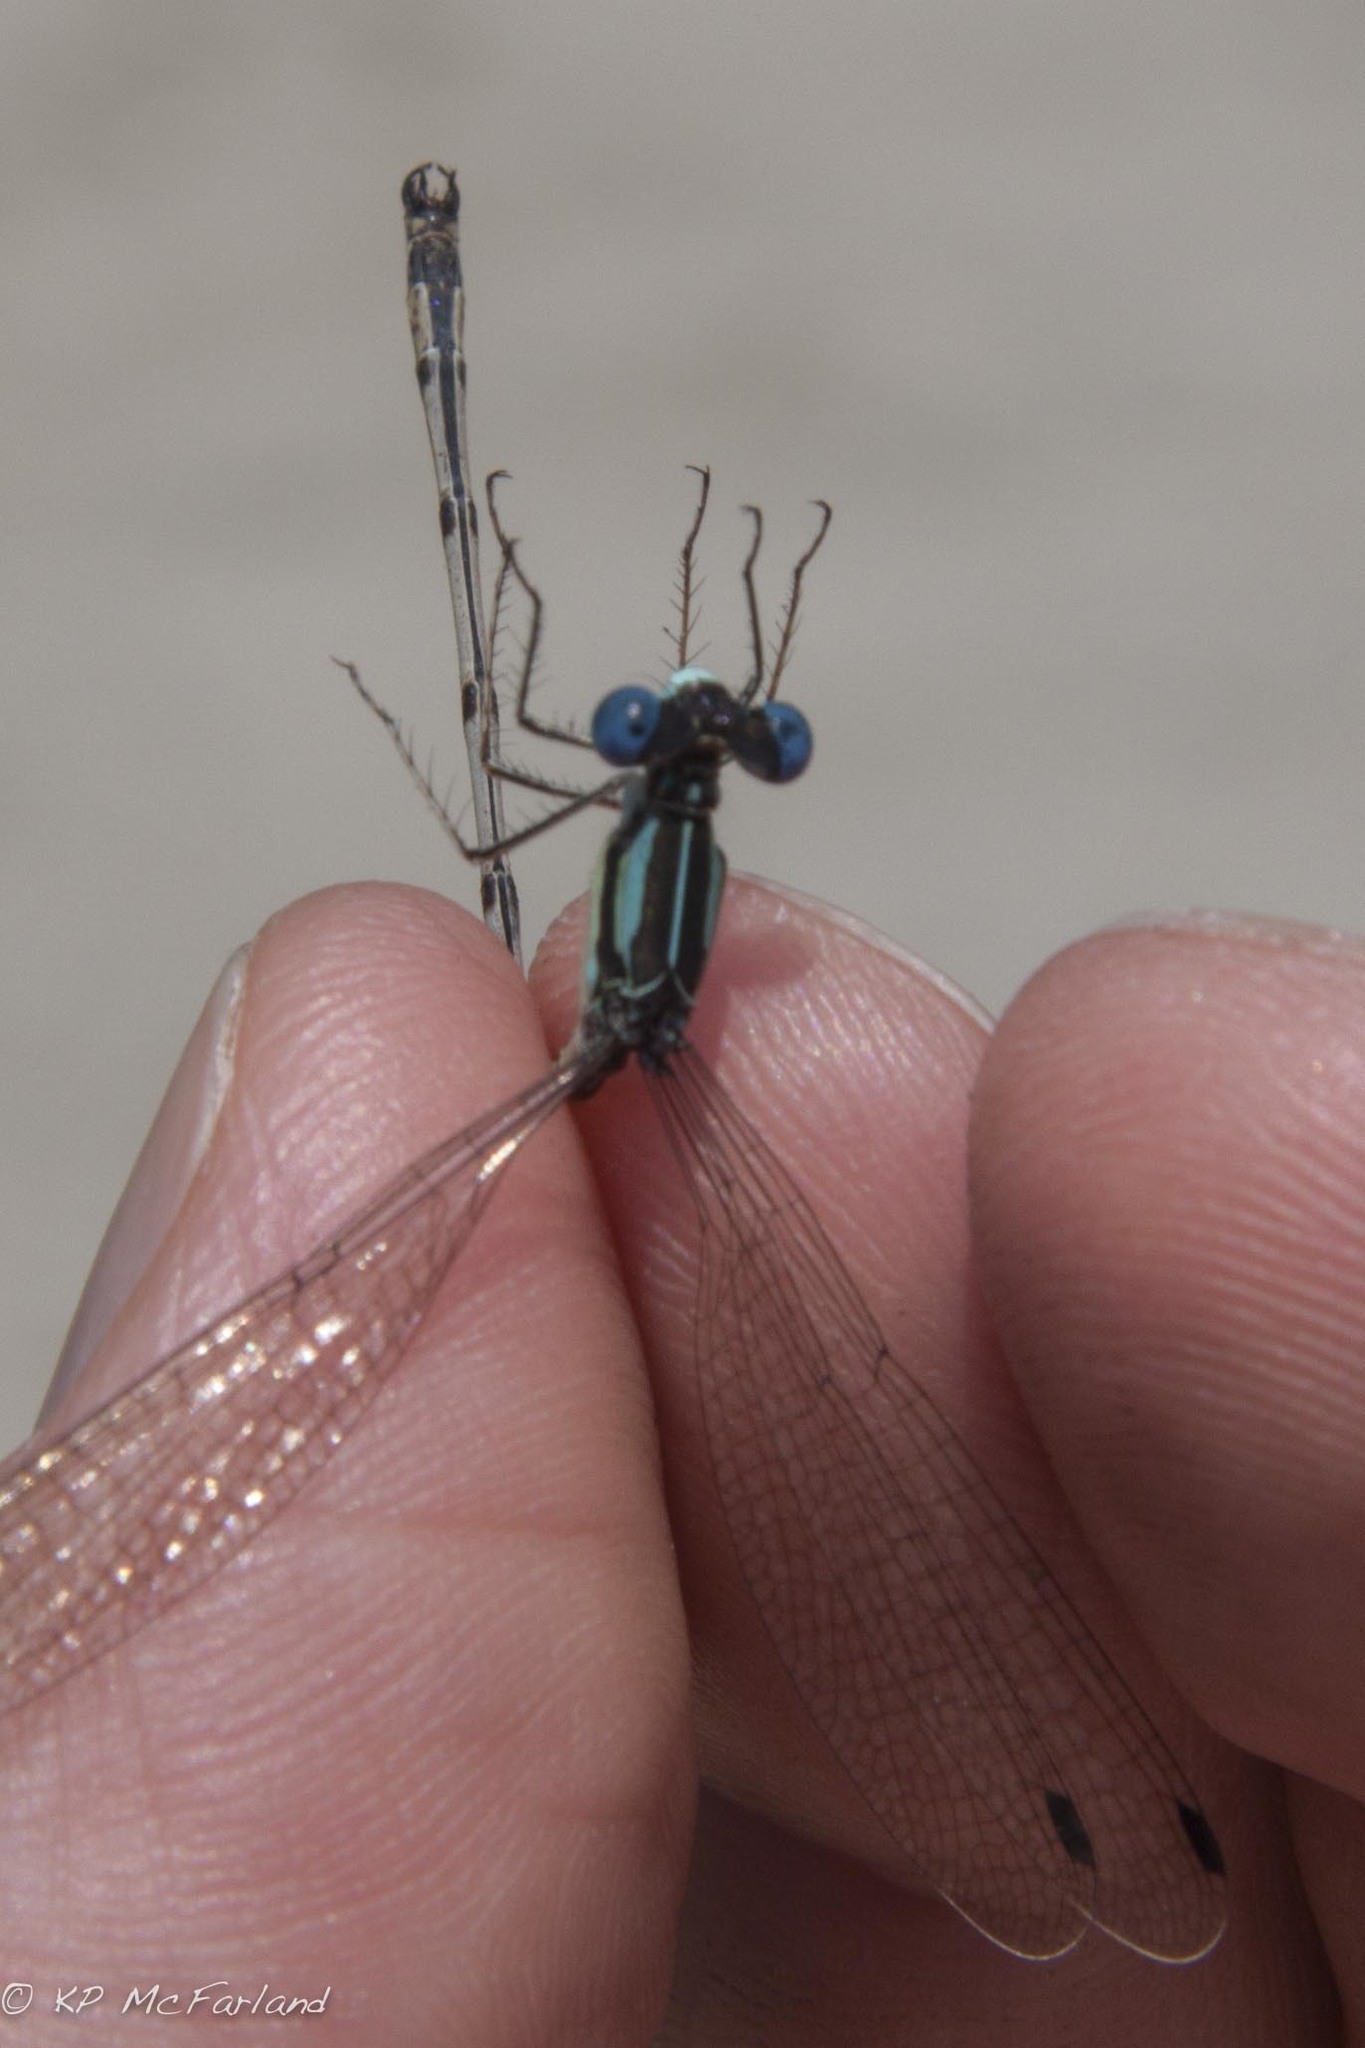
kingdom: Animalia
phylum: Arthropoda
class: Insecta
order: Odonata
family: Lestidae
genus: Lestes
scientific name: Lestes rectangularis
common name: Slender spreadwing
